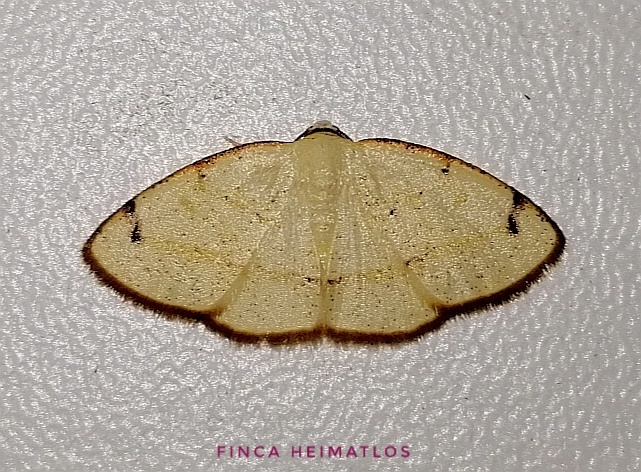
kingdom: Animalia
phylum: Arthropoda
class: Insecta
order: Lepidoptera
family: Geometridae
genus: Microxydia
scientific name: Microxydia orsitaria
